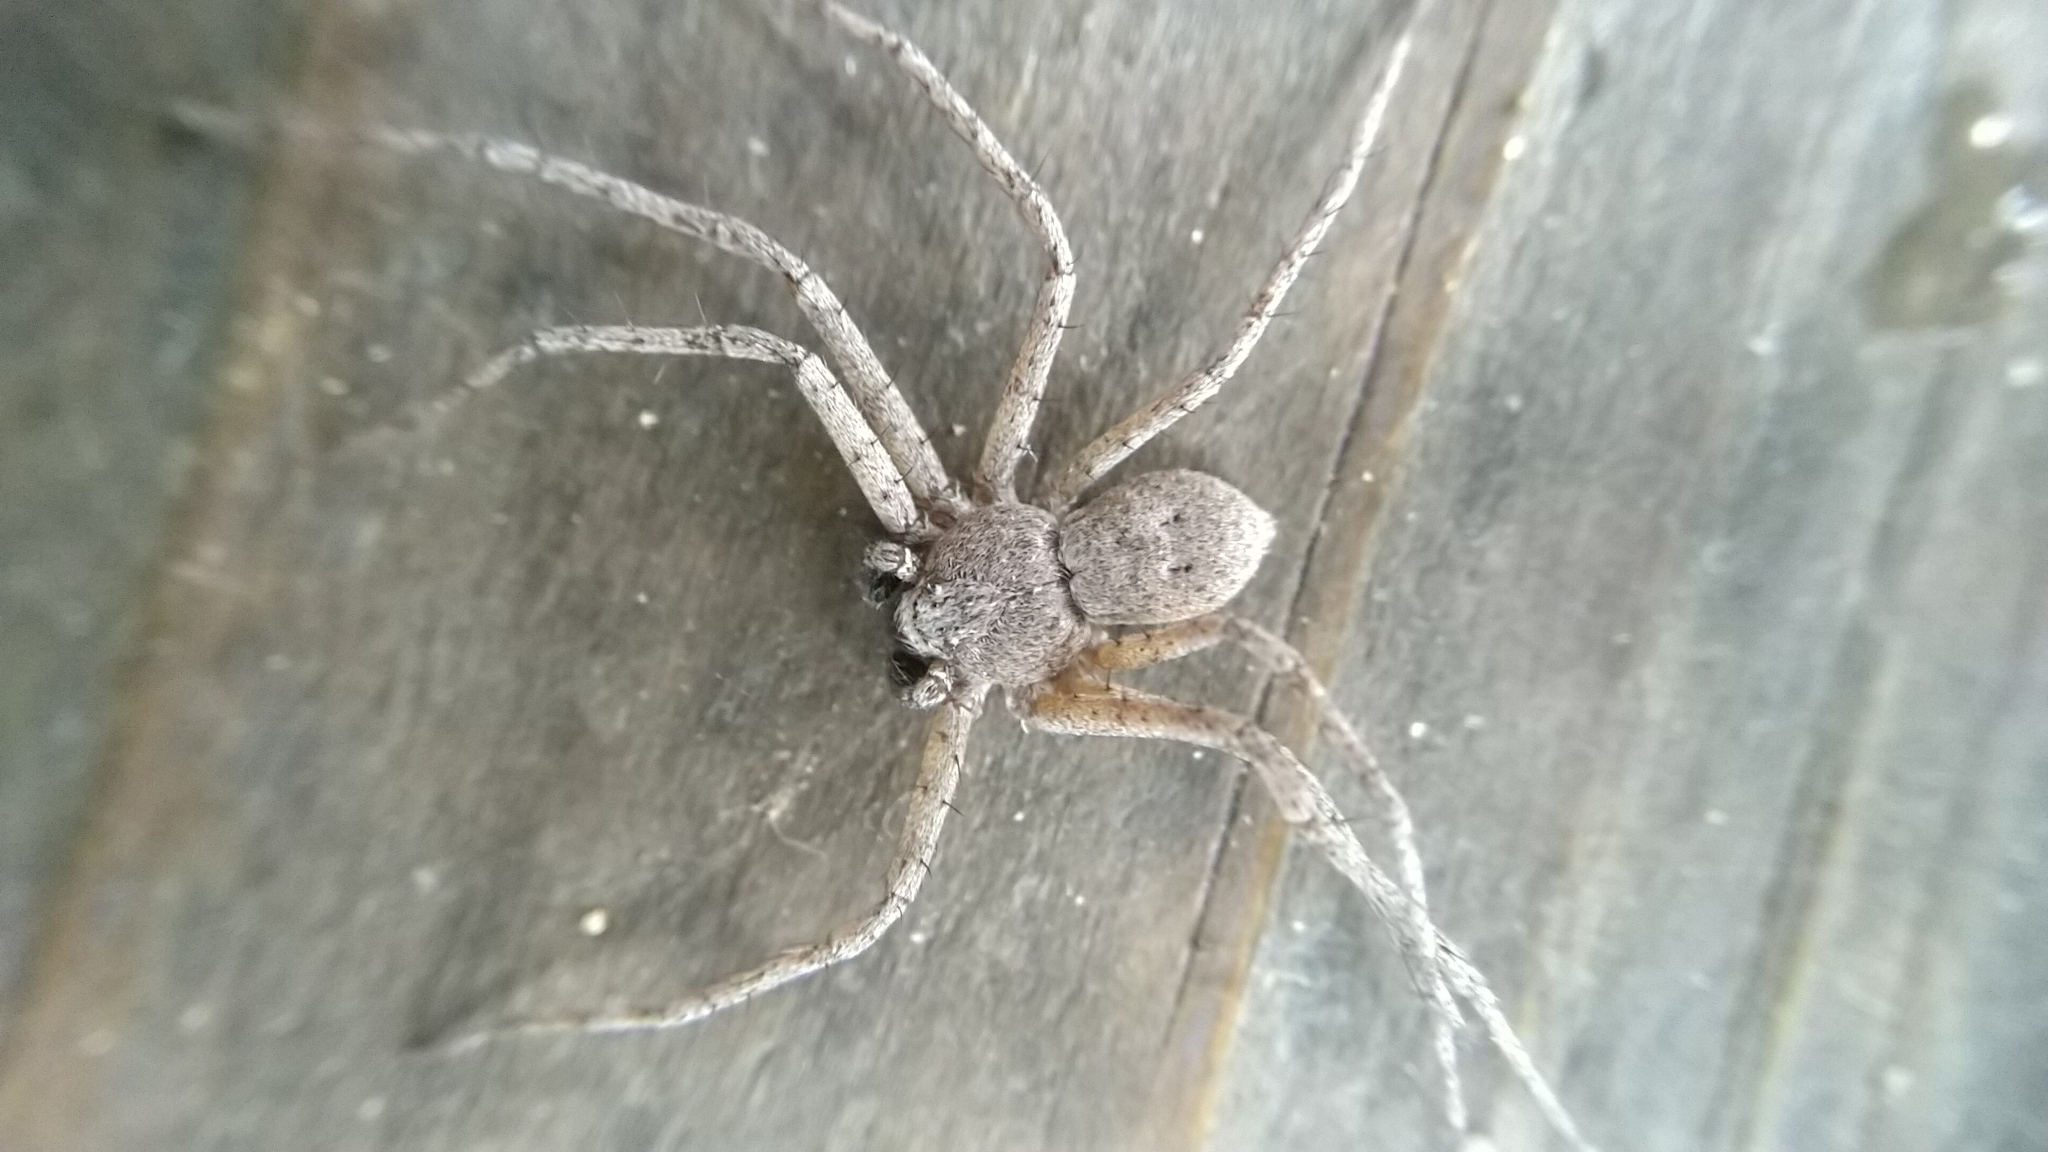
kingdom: Animalia
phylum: Arthropoda
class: Arachnida
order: Araneae
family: Philodromidae
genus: Philodromus
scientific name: Philodromus fuscomarginatus
